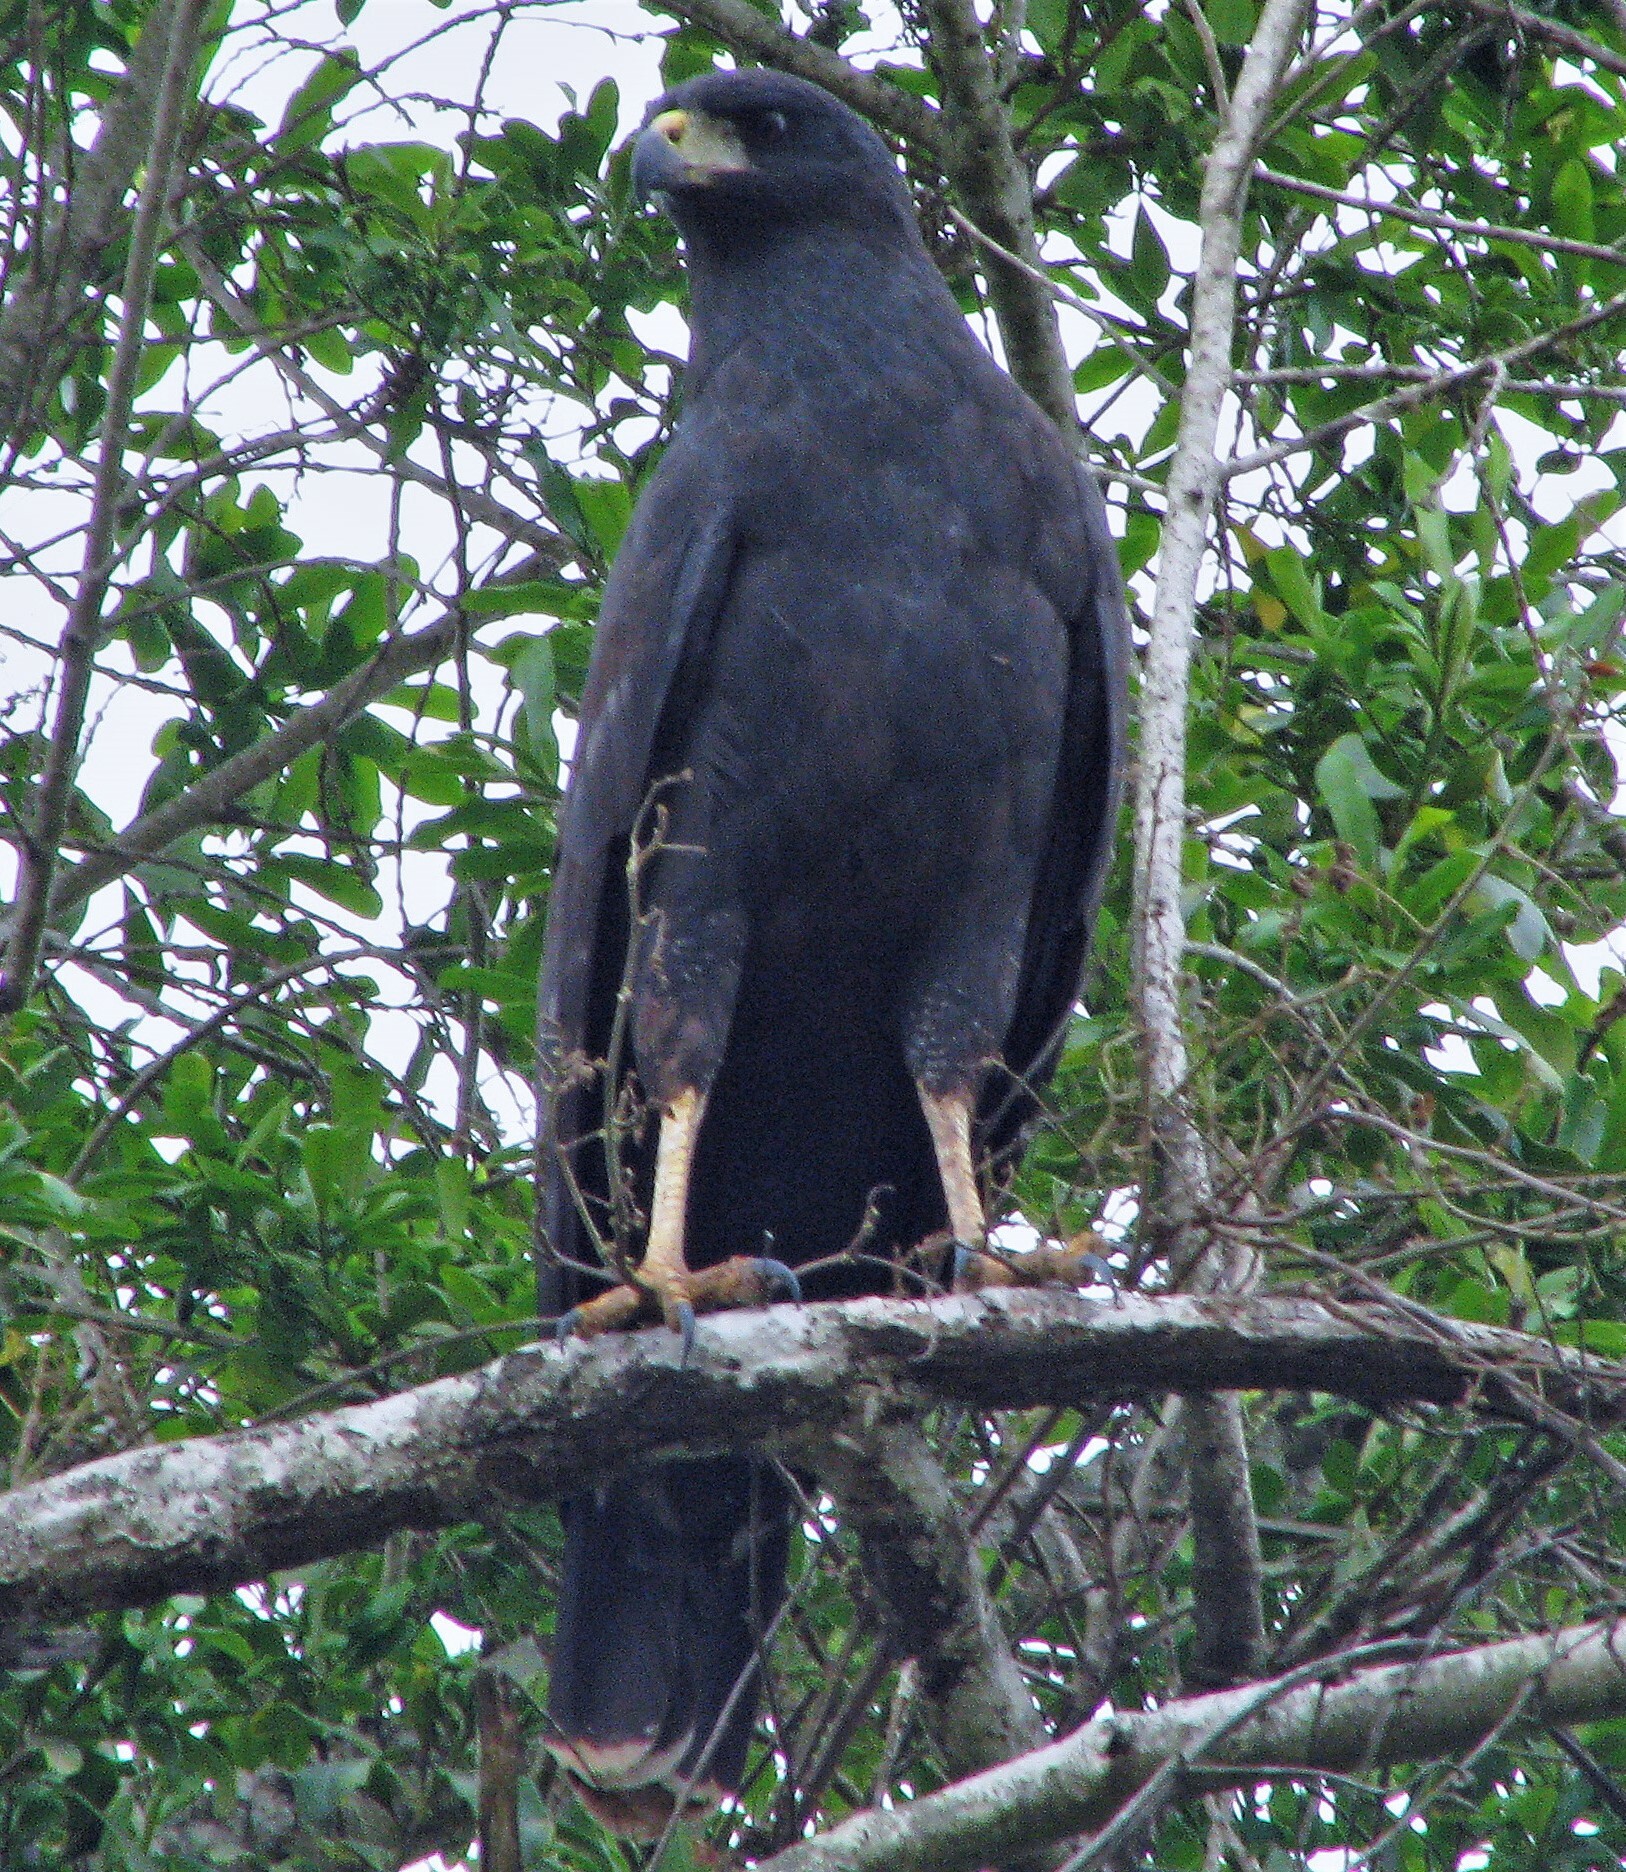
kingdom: Animalia
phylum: Chordata
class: Aves
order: Accipitriformes
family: Accipitridae
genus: Buteogallus
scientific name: Buteogallus urubitinga
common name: Great black hawk
